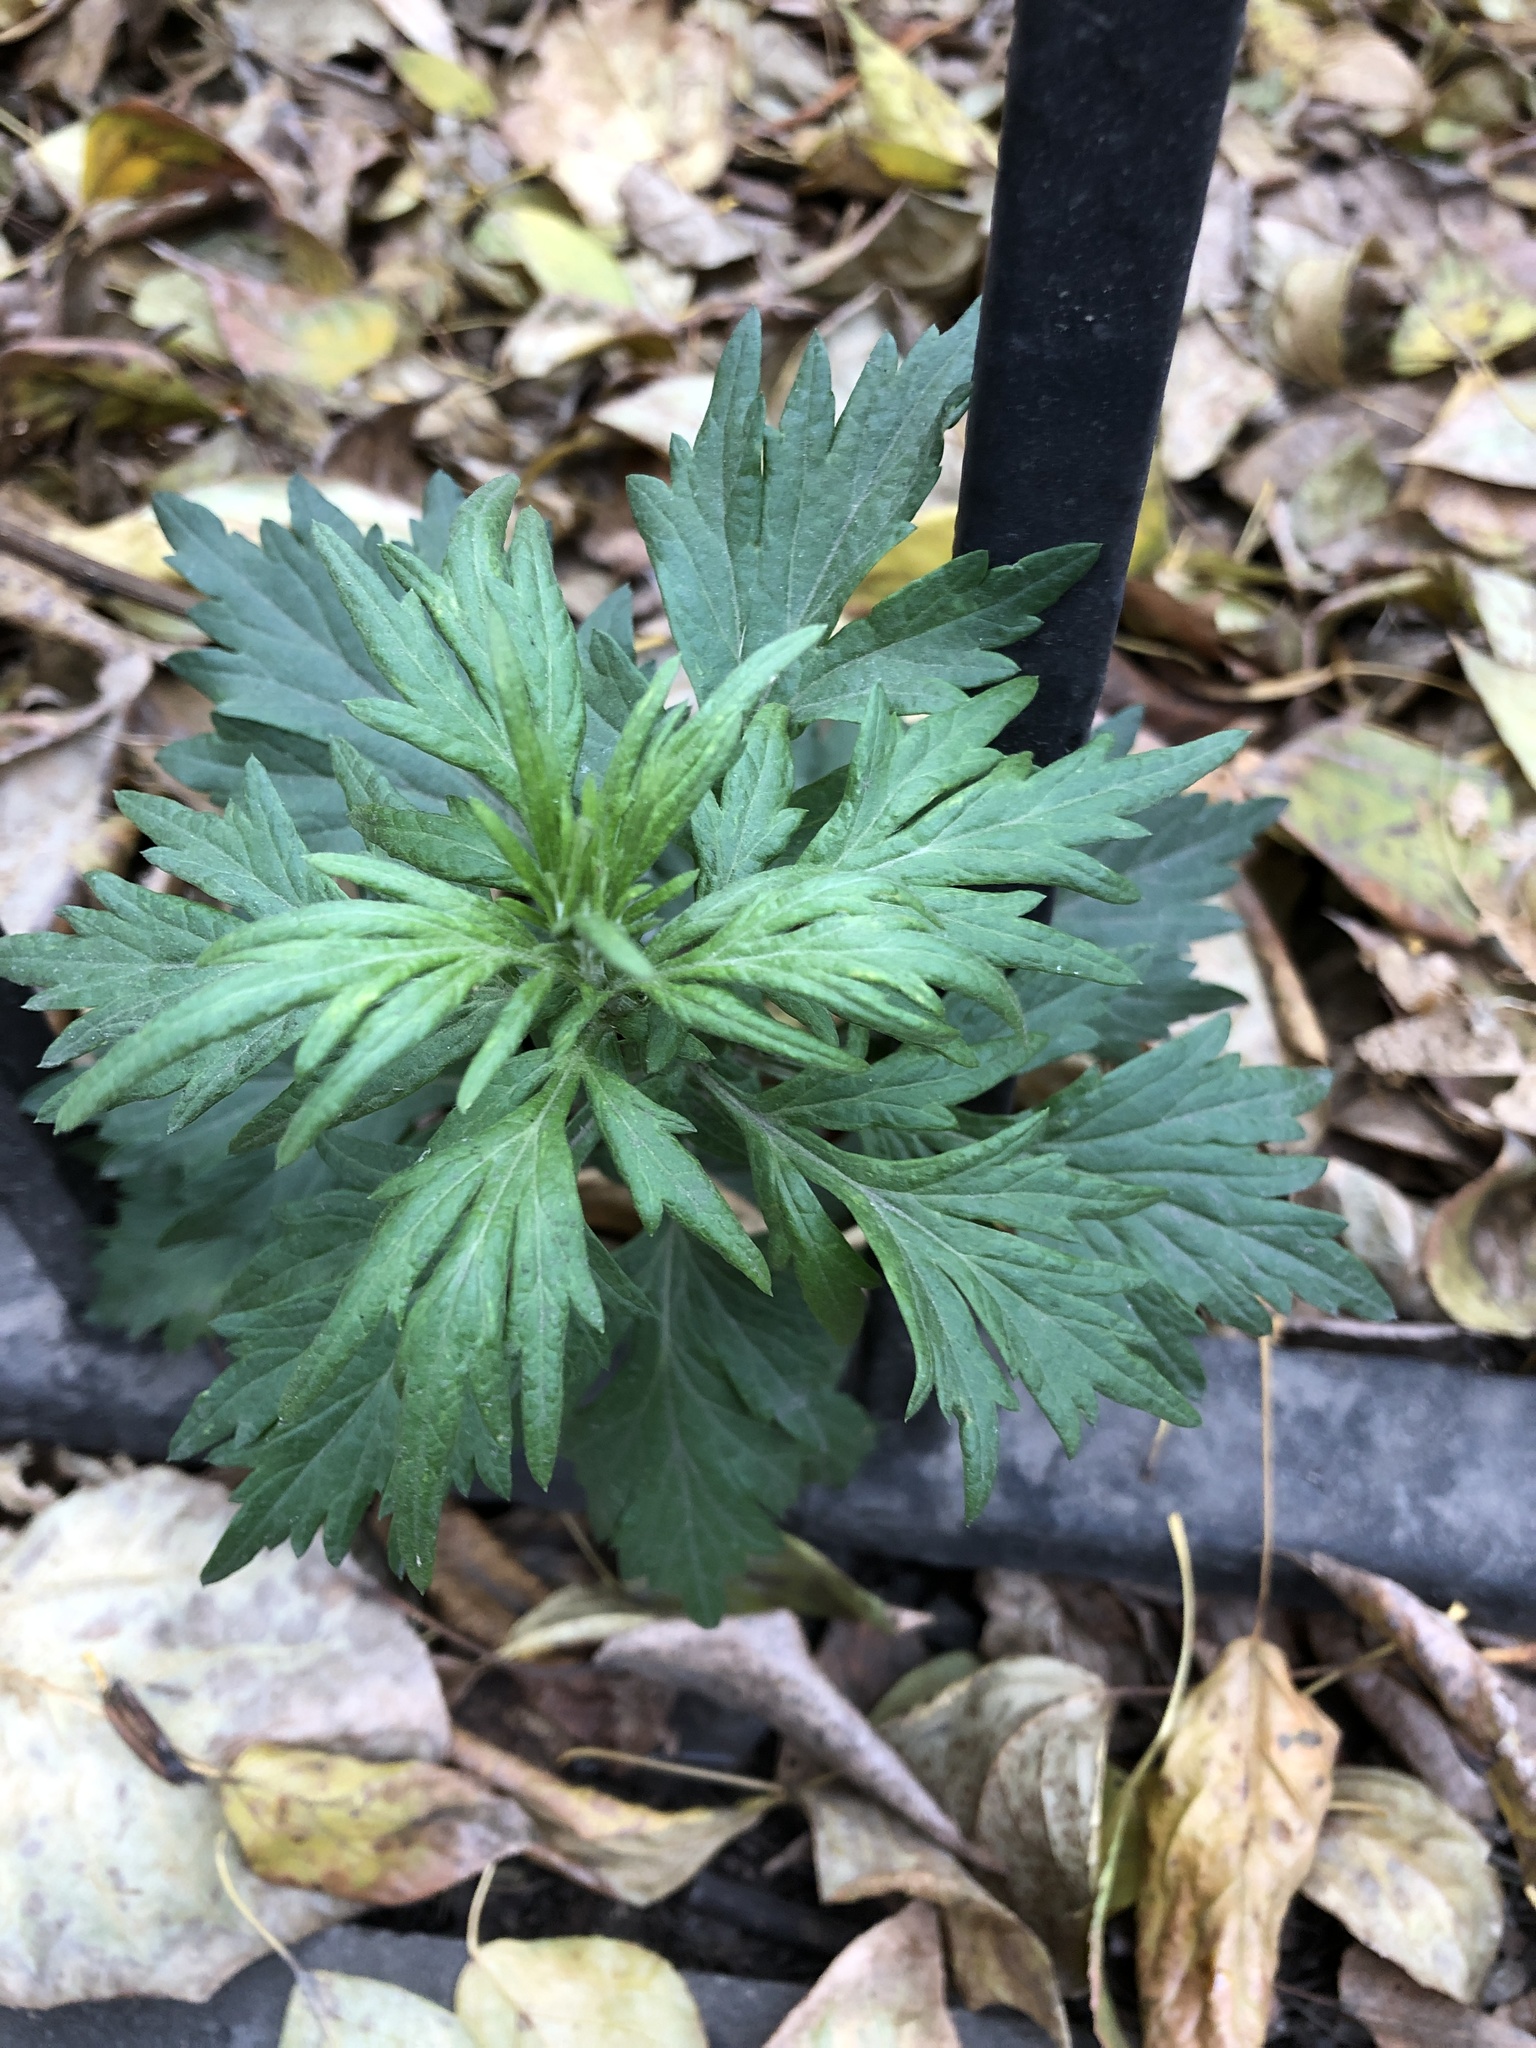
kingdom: Plantae
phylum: Tracheophyta
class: Magnoliopsida
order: Asterales
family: Asteraceae
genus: Artemisia
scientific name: Artemisia vulgaris
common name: Mugwort
